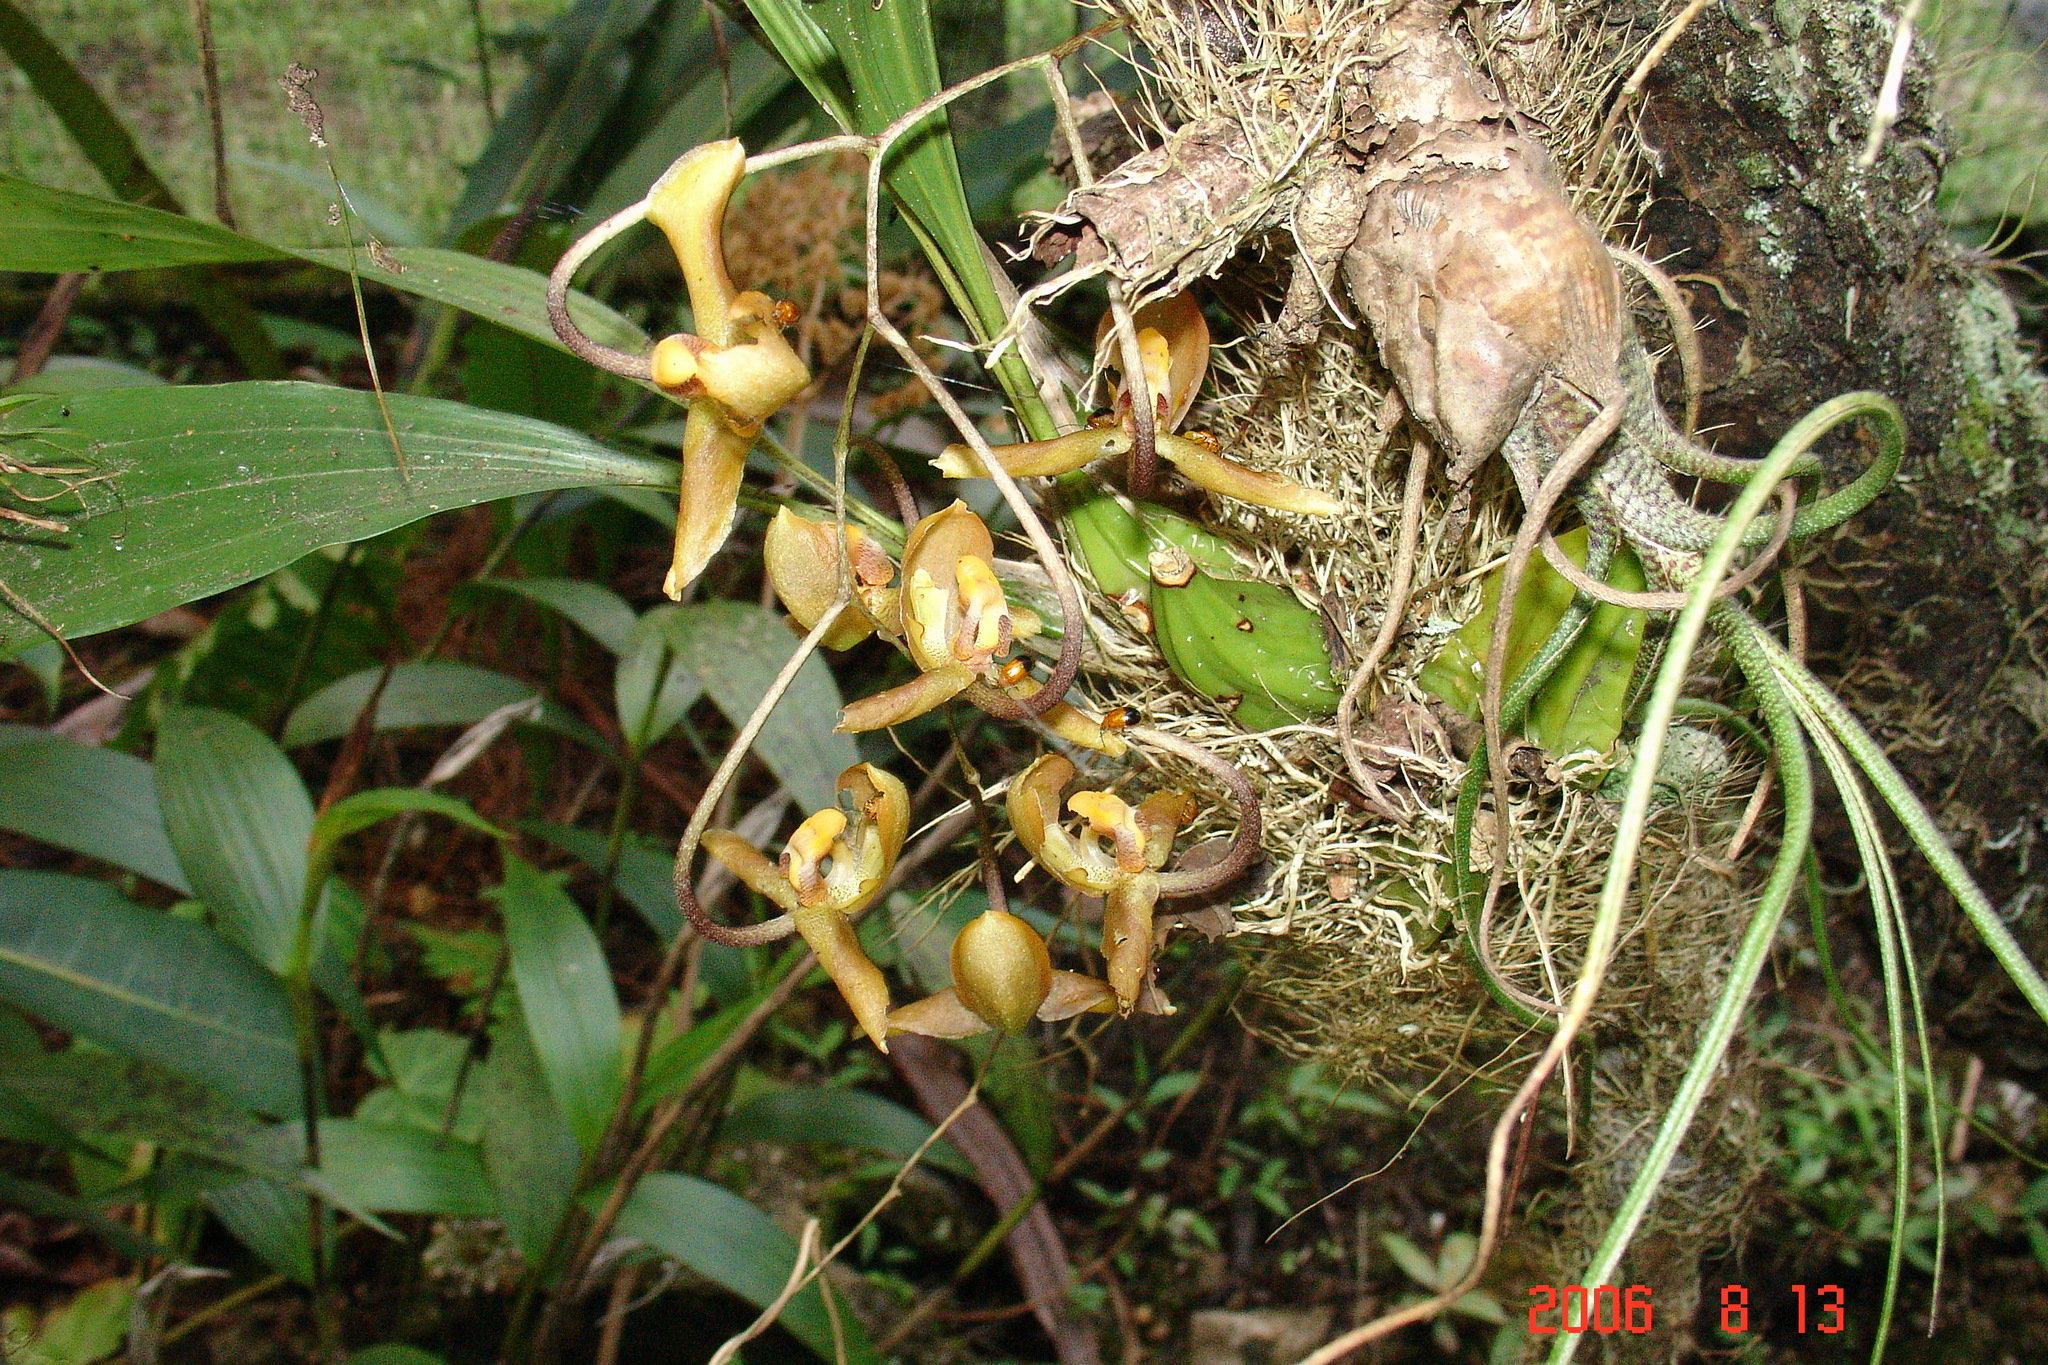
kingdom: Plantae
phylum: Tracheophyta
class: Liliopsida
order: Asparagales
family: Orchidaceae
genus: Gongora
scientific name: Gongora galeata
